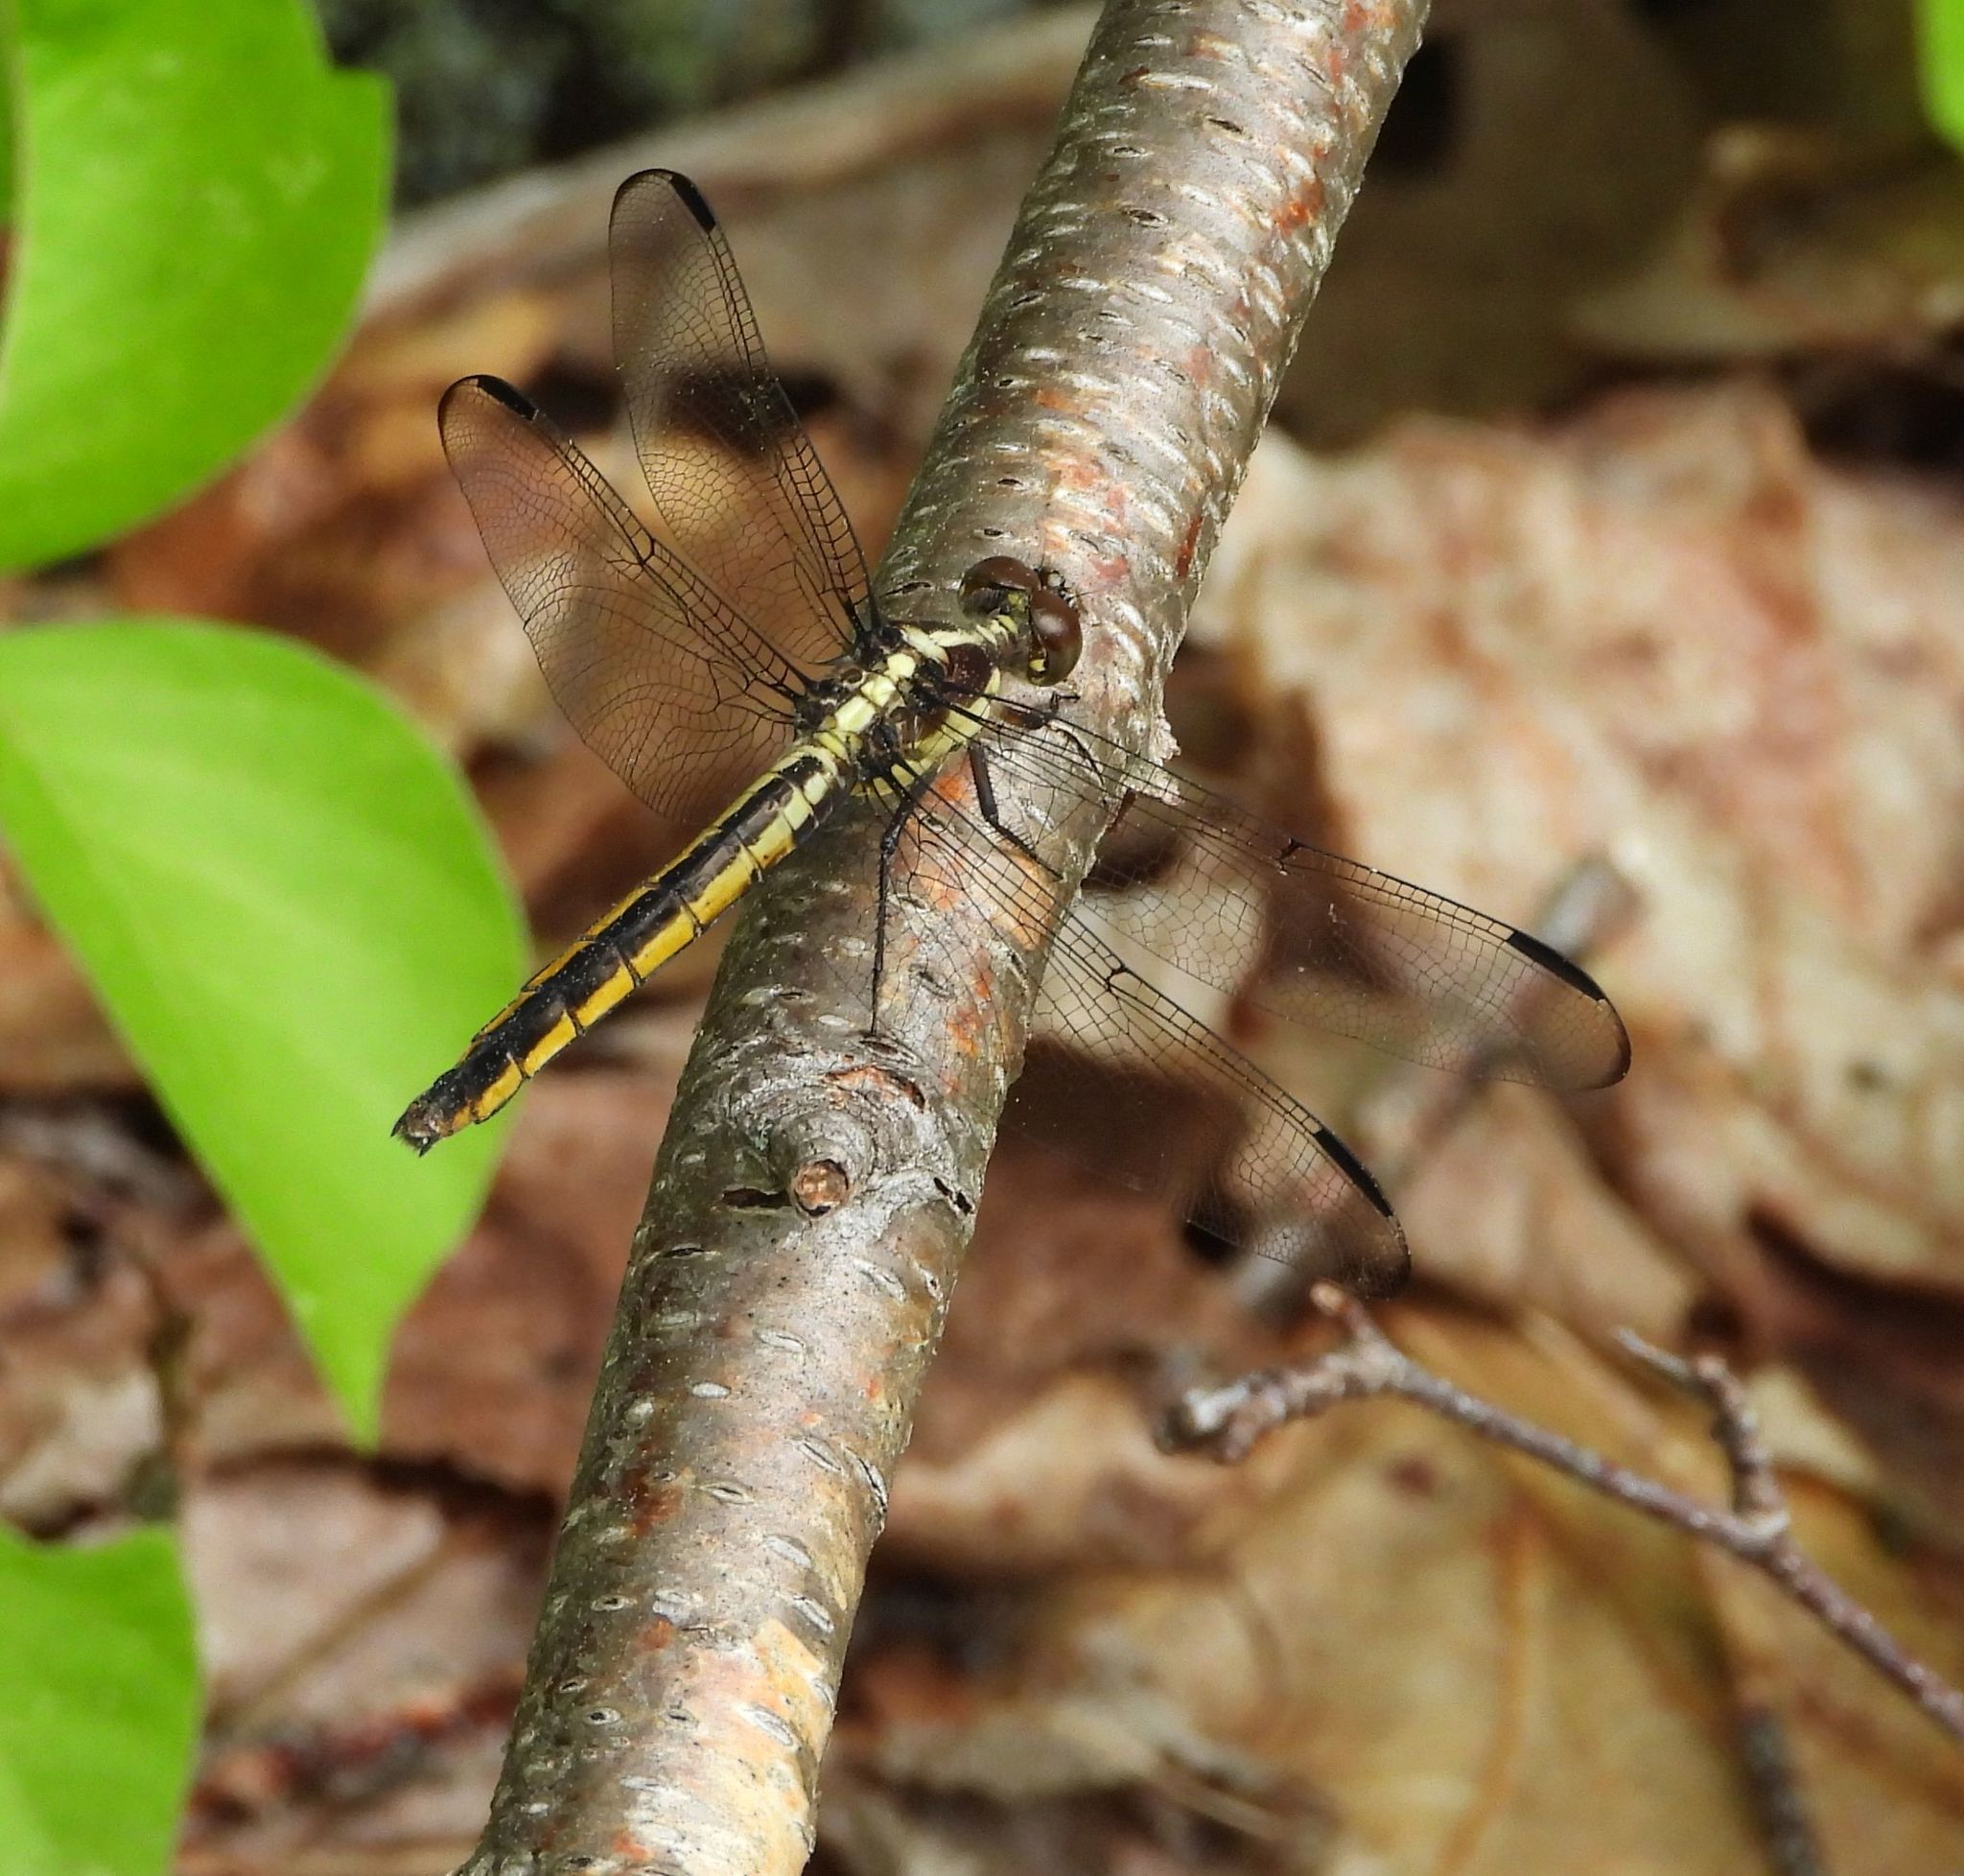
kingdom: Animalia
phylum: Arthropoda
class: Insecta
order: Odonata
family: Libellulidae
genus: Libellula
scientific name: Libellula incesta
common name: Slaty skimmer
